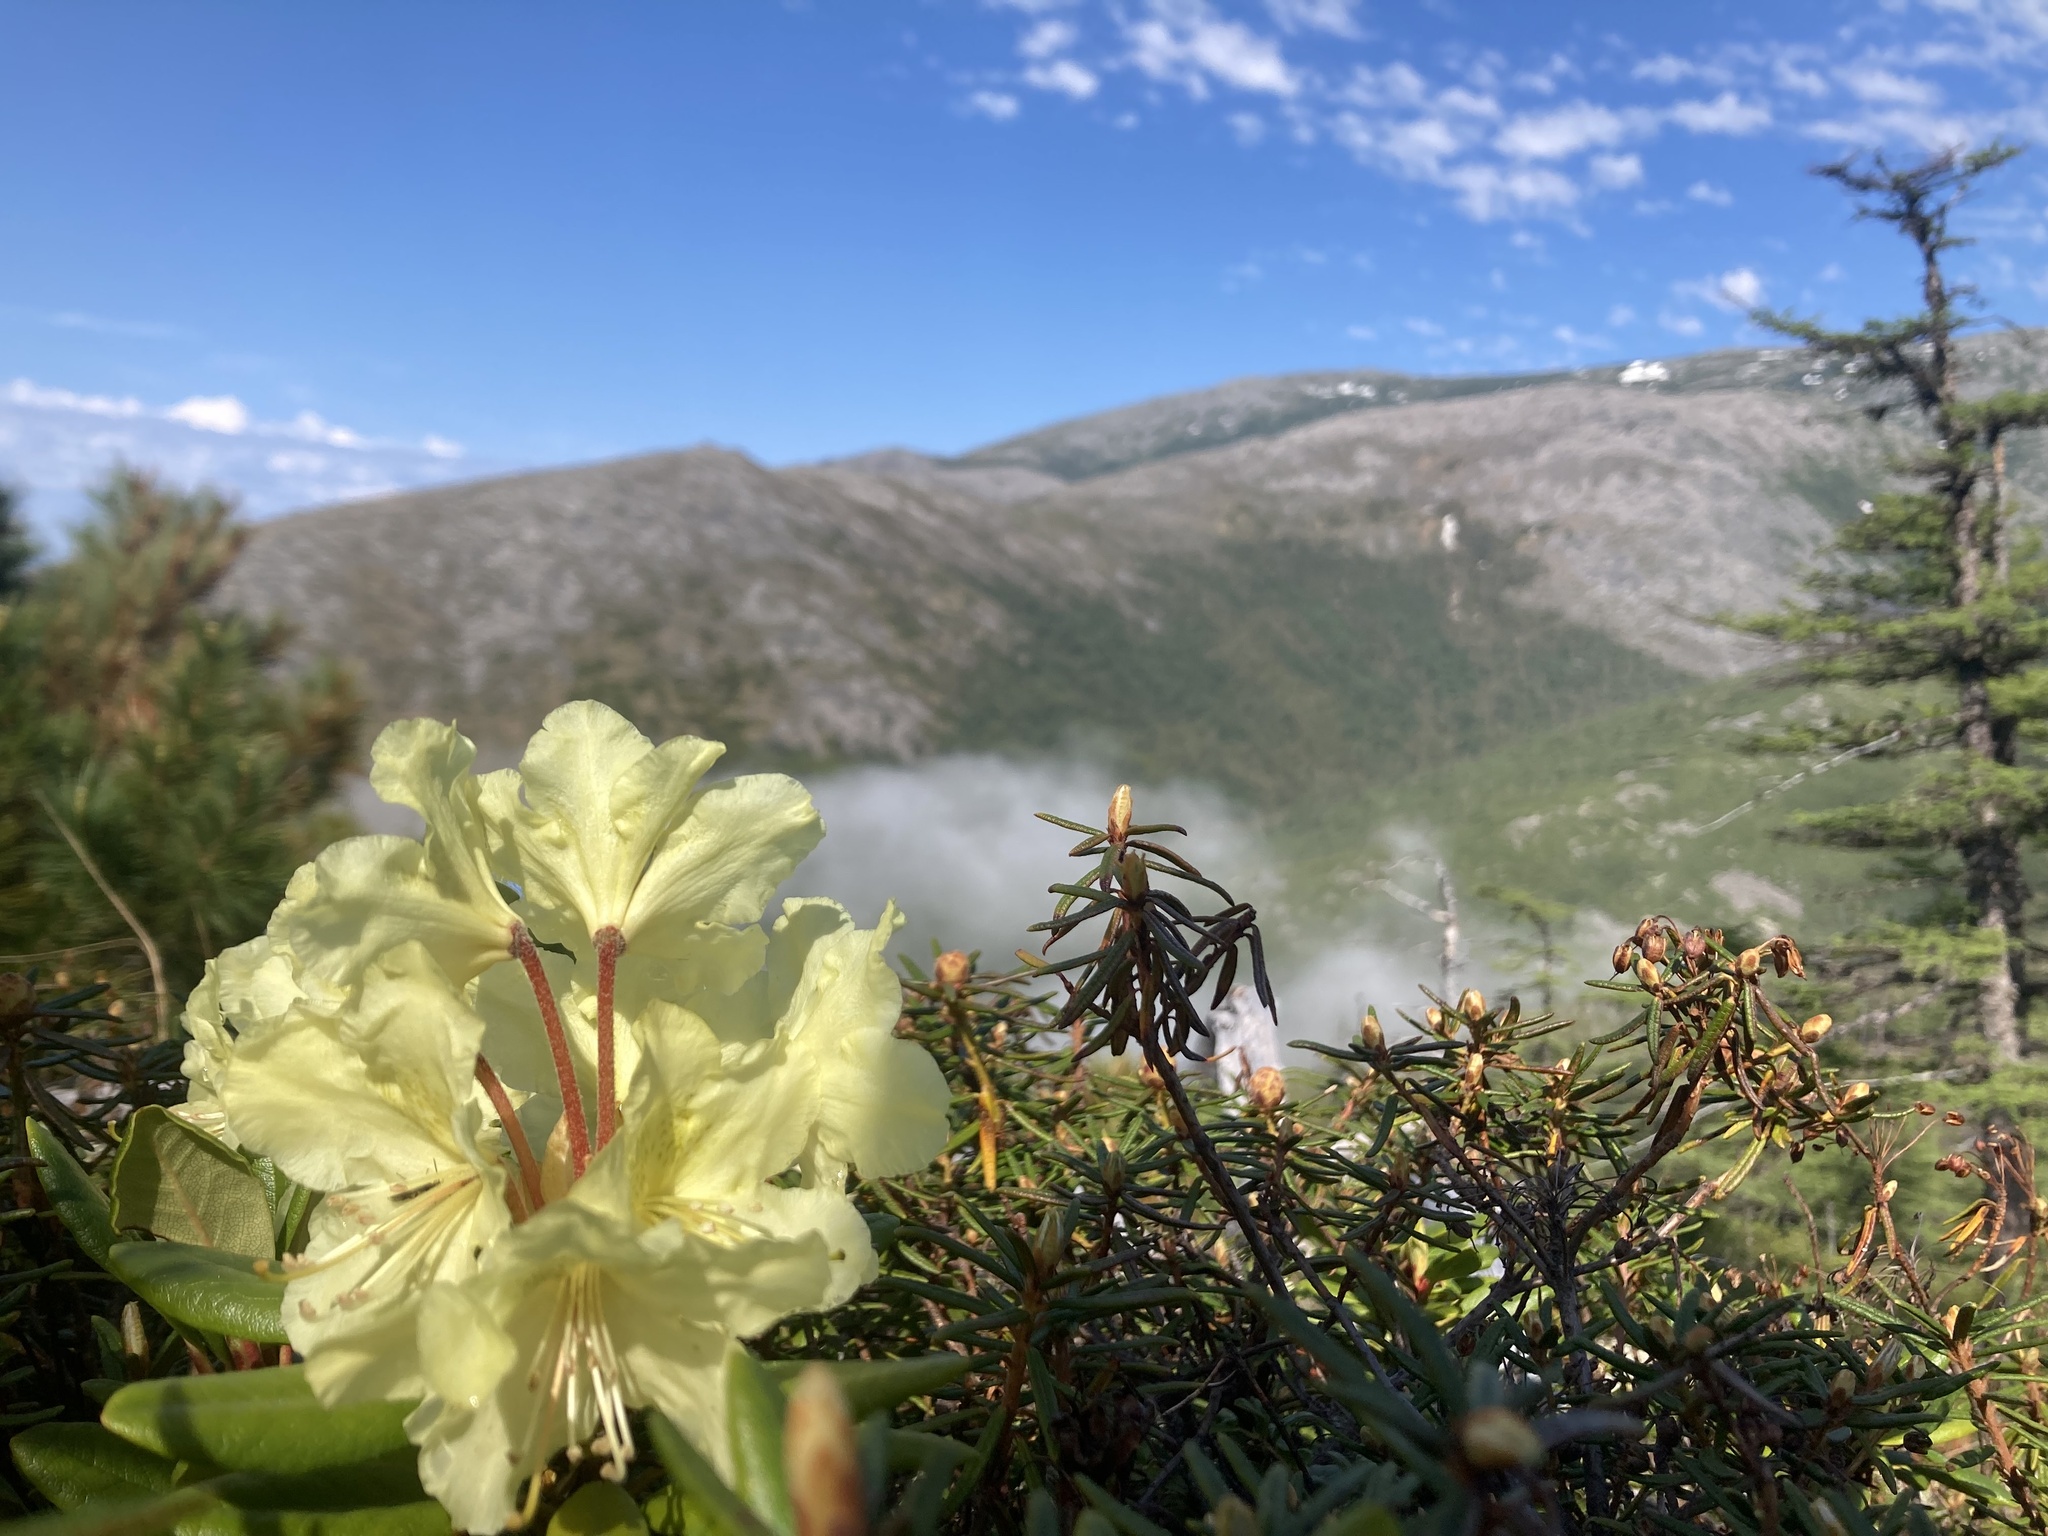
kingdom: Plantae
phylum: Tracheophyta
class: Magnoliopsida
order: Ericales
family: Ericaceae
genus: Rhododendron
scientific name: Rhododendron aureum
